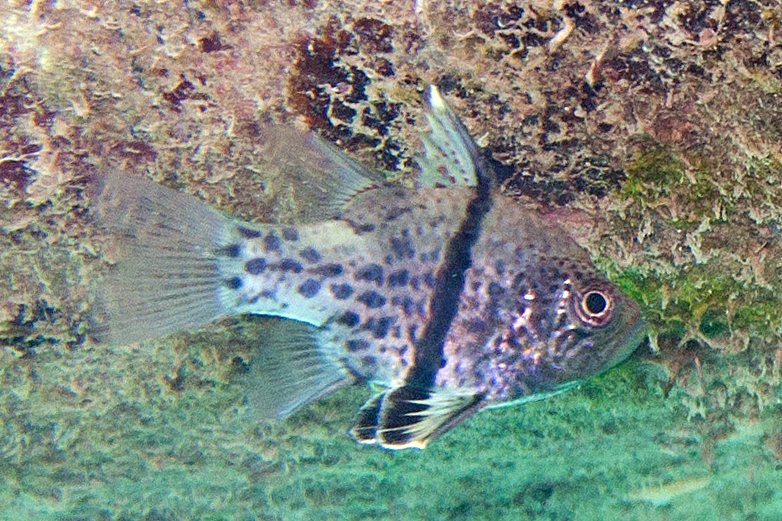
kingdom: Animalia
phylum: Chordata
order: Perciformes
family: Apogonidae
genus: Sphaeramia
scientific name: Sphaeramia orbicularis
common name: Polka-dot cardinalfish
